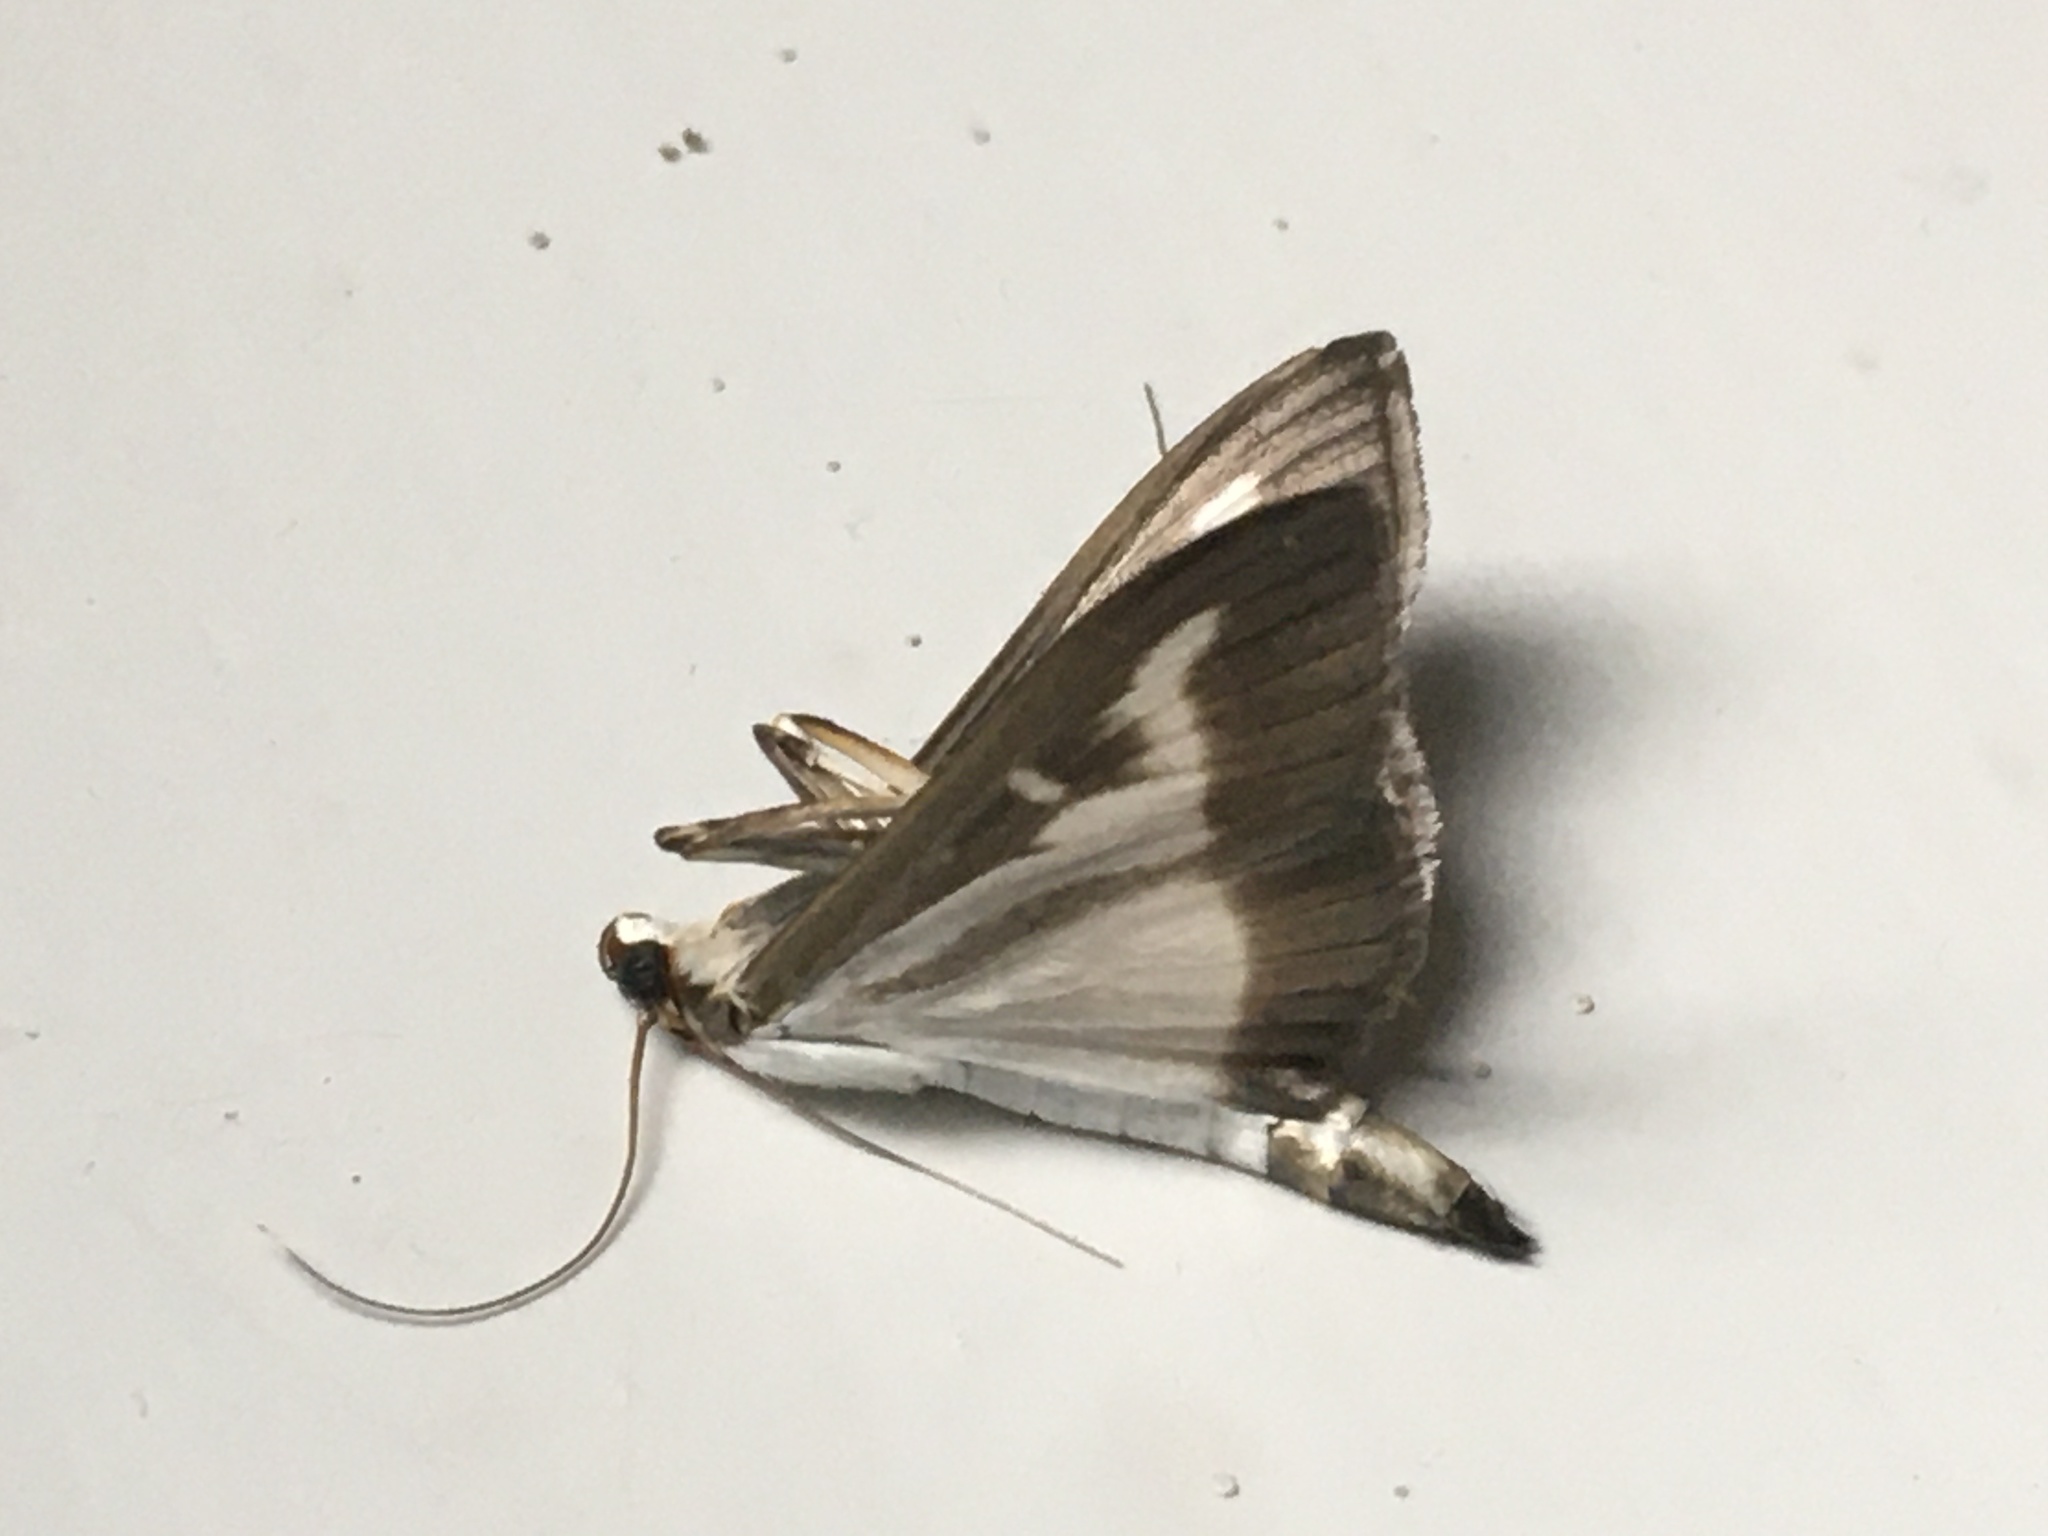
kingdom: Animalia
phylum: Arthropoda
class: Insecta
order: Lepidoptera
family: Crambidae
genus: Cydalima
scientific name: Cydalima perspectalis
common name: Box tree moth
